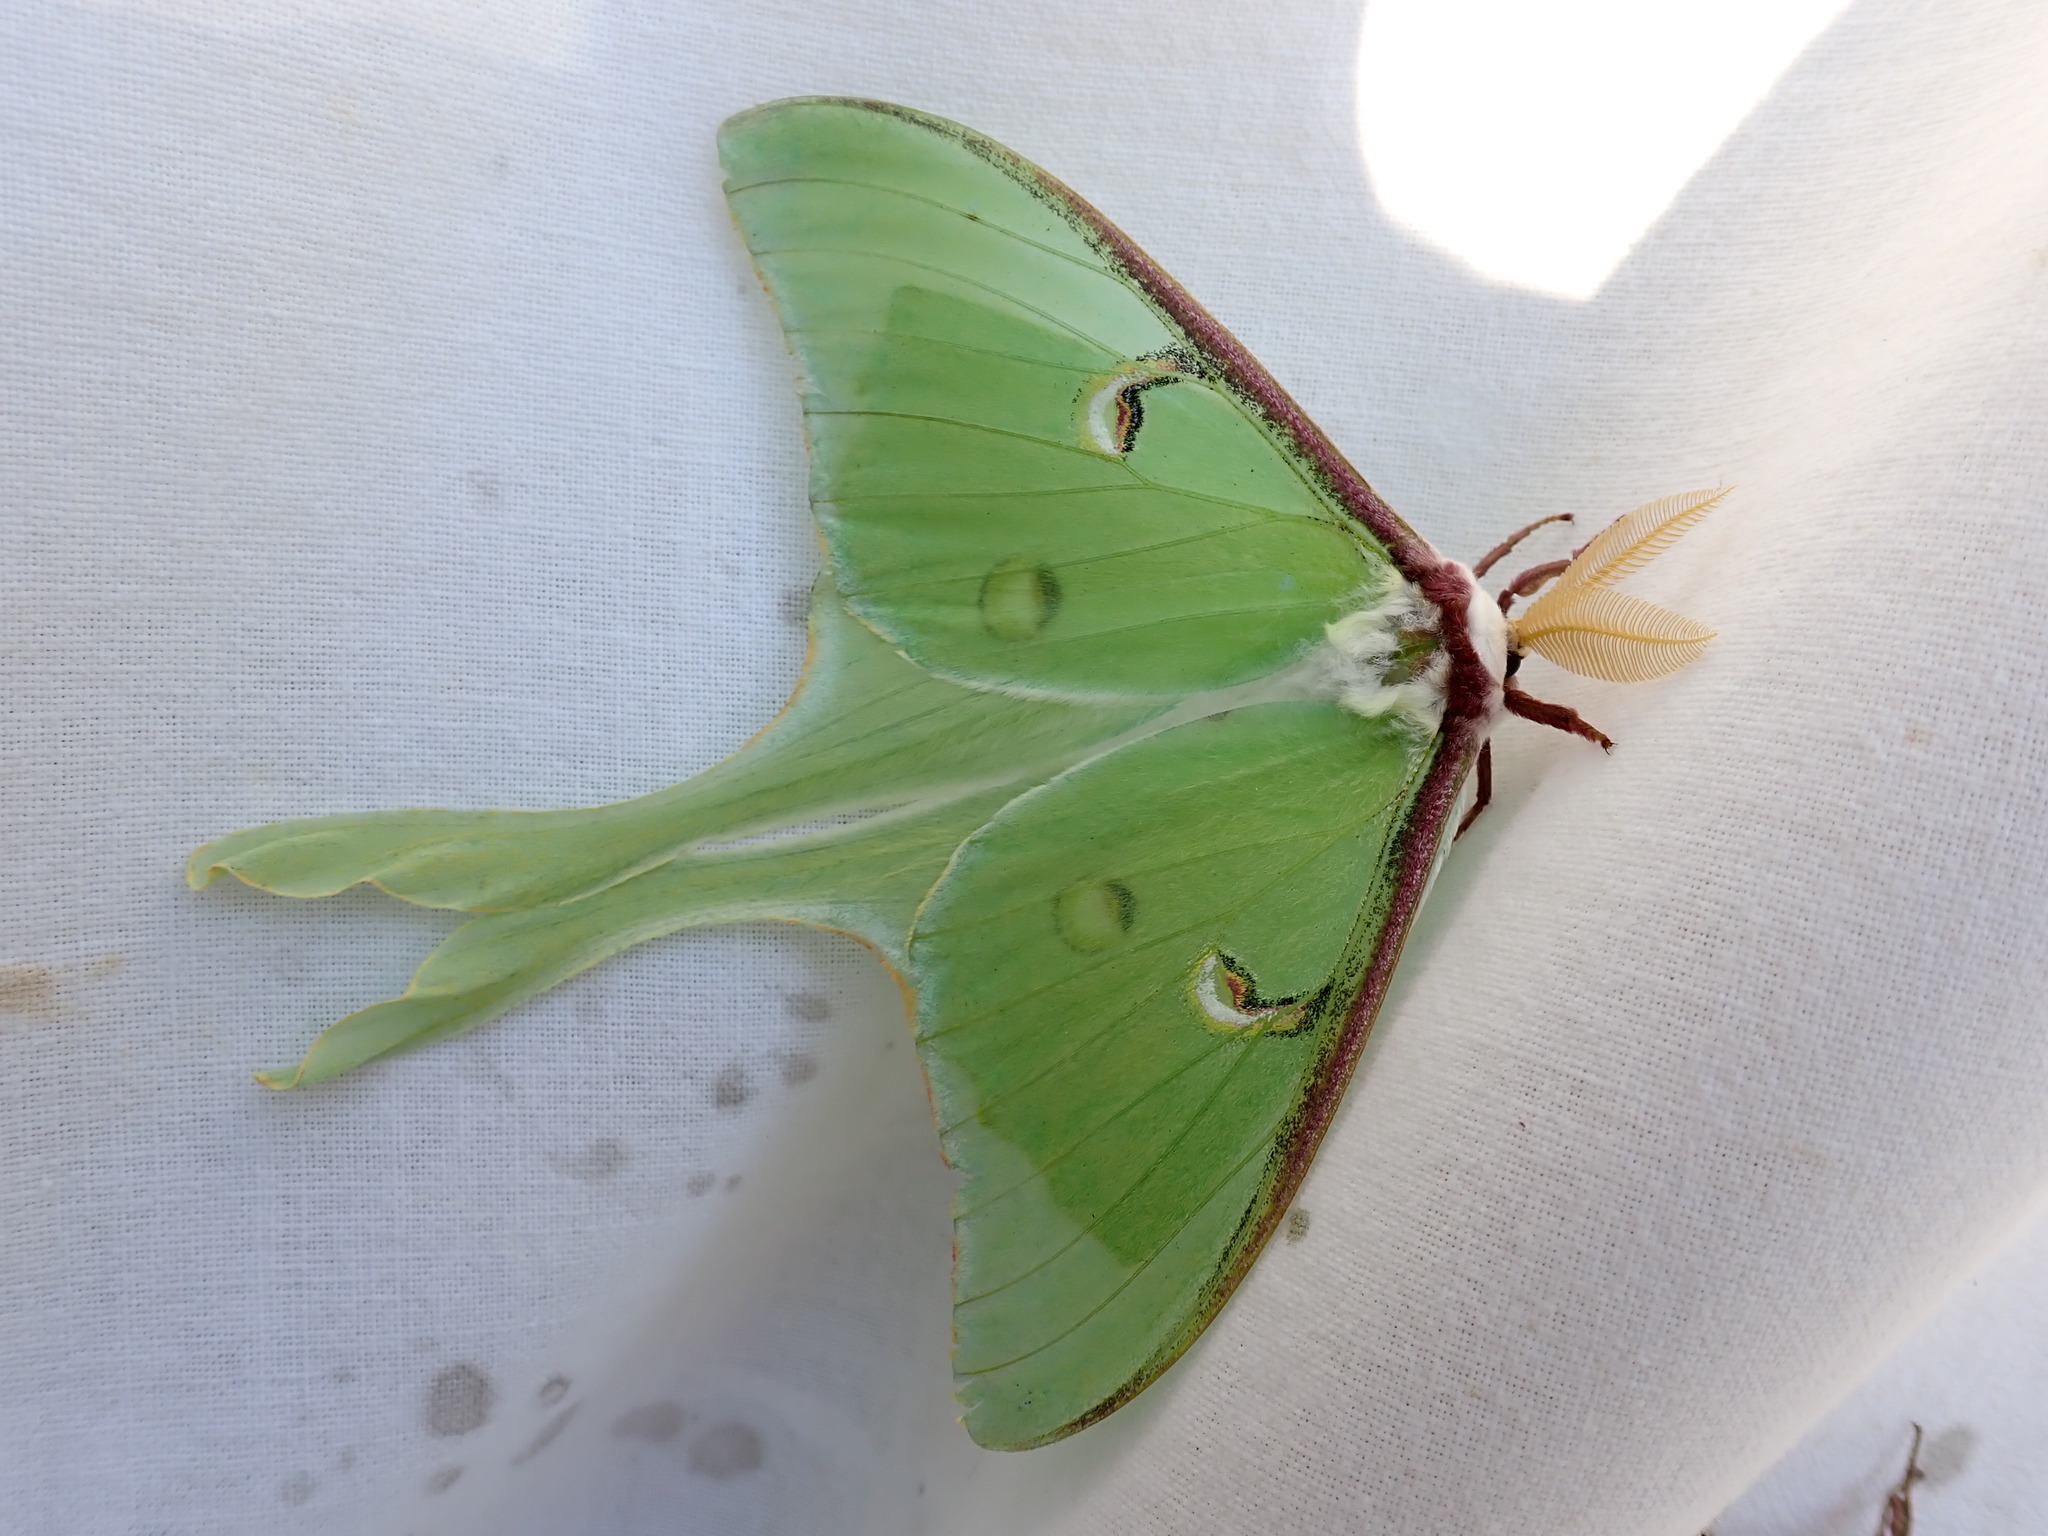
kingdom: Animalia
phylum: Arthropoda
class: Insecta
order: Lepidoptera
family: Saturniidae
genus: Actias
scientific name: Actias luna
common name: Luna moth
